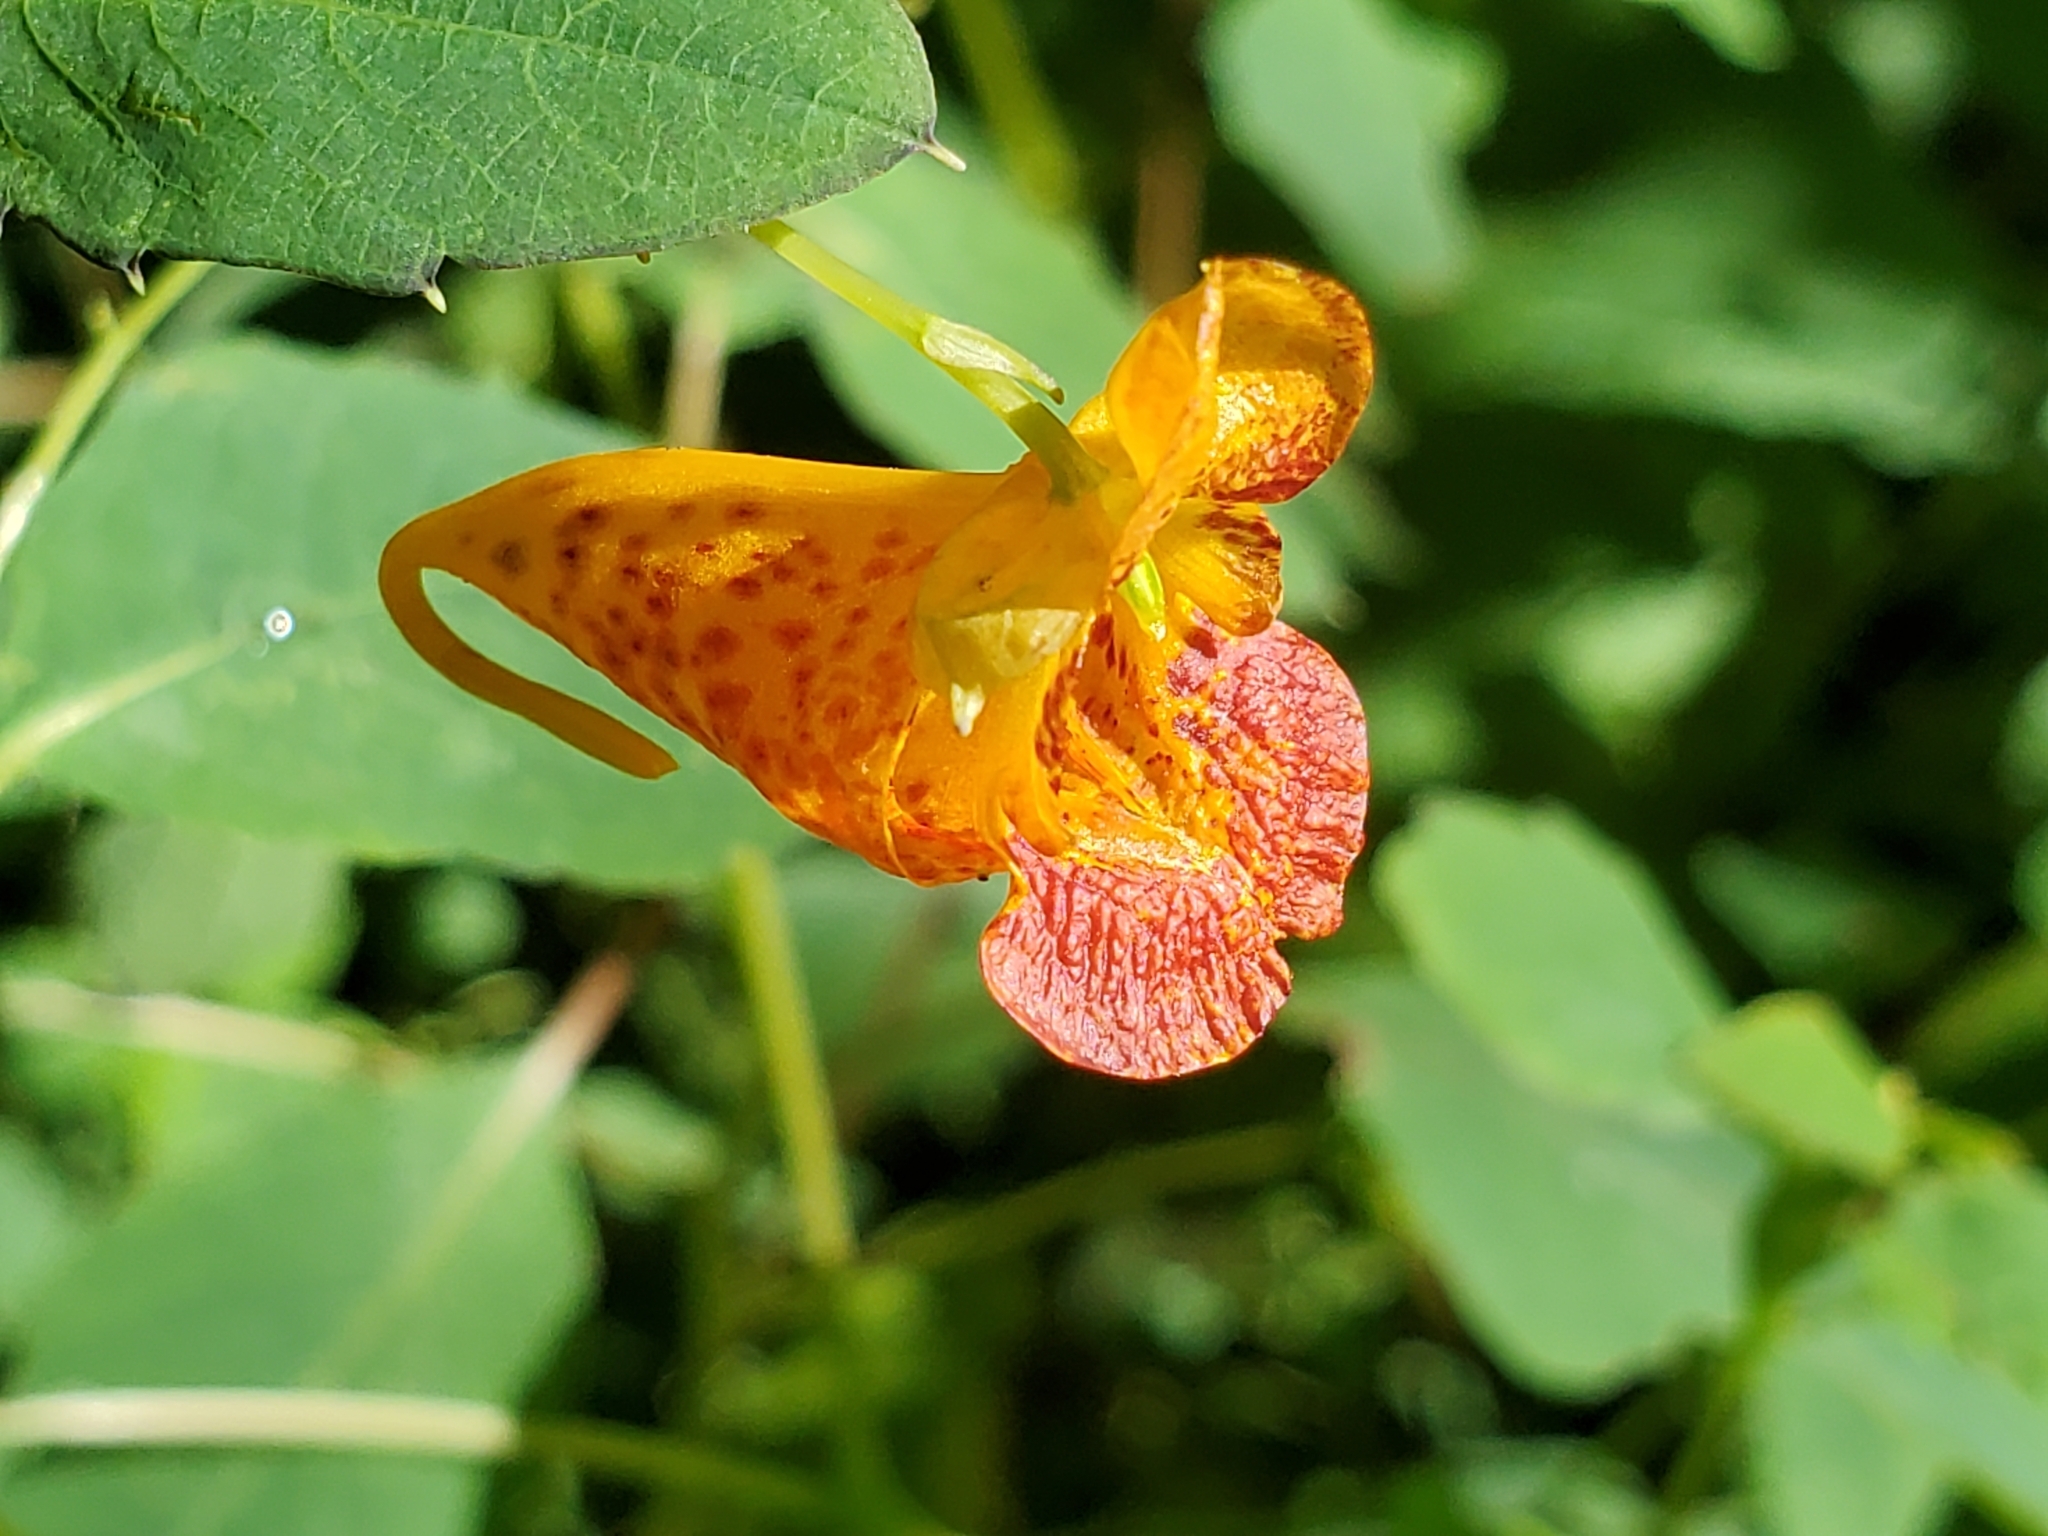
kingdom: Plantae
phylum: Tracheophyta
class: Magnoliopsida
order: Ericales
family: Balsaminaceae
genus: Impatiens
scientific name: Impatiens capensis
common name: Orange balsam
